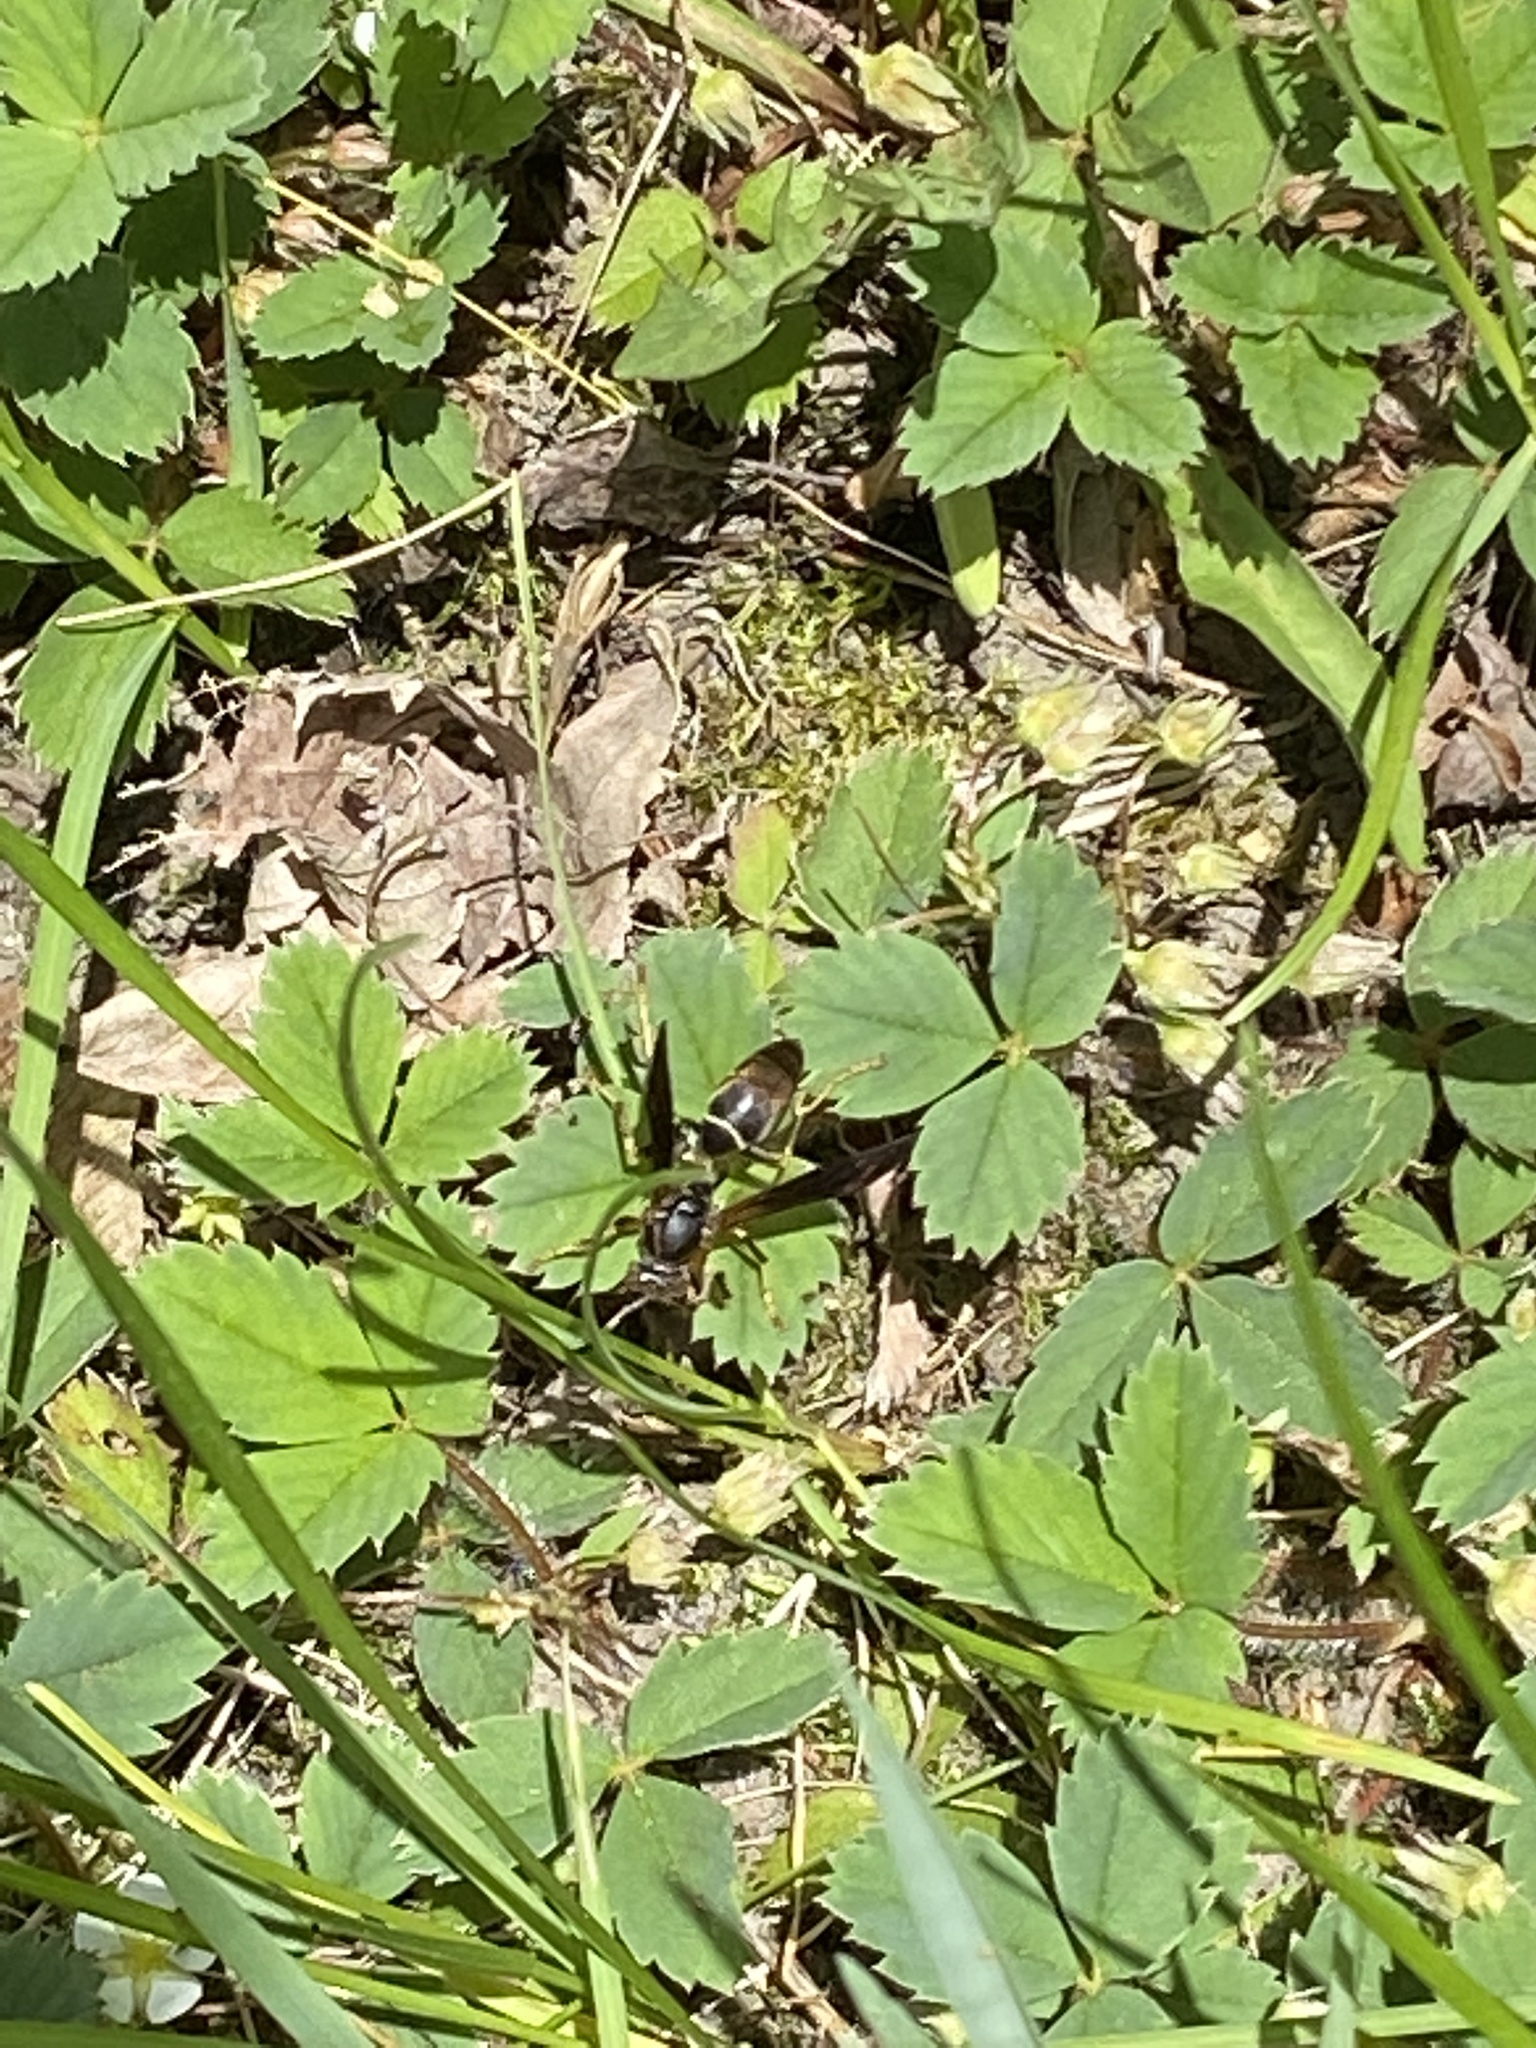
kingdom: Animalia
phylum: Arthropoda
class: Insecta
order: Hymenoptera
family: Eumenidae
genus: Polistes
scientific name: Polistes fuscatus
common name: Dark paper wasp
